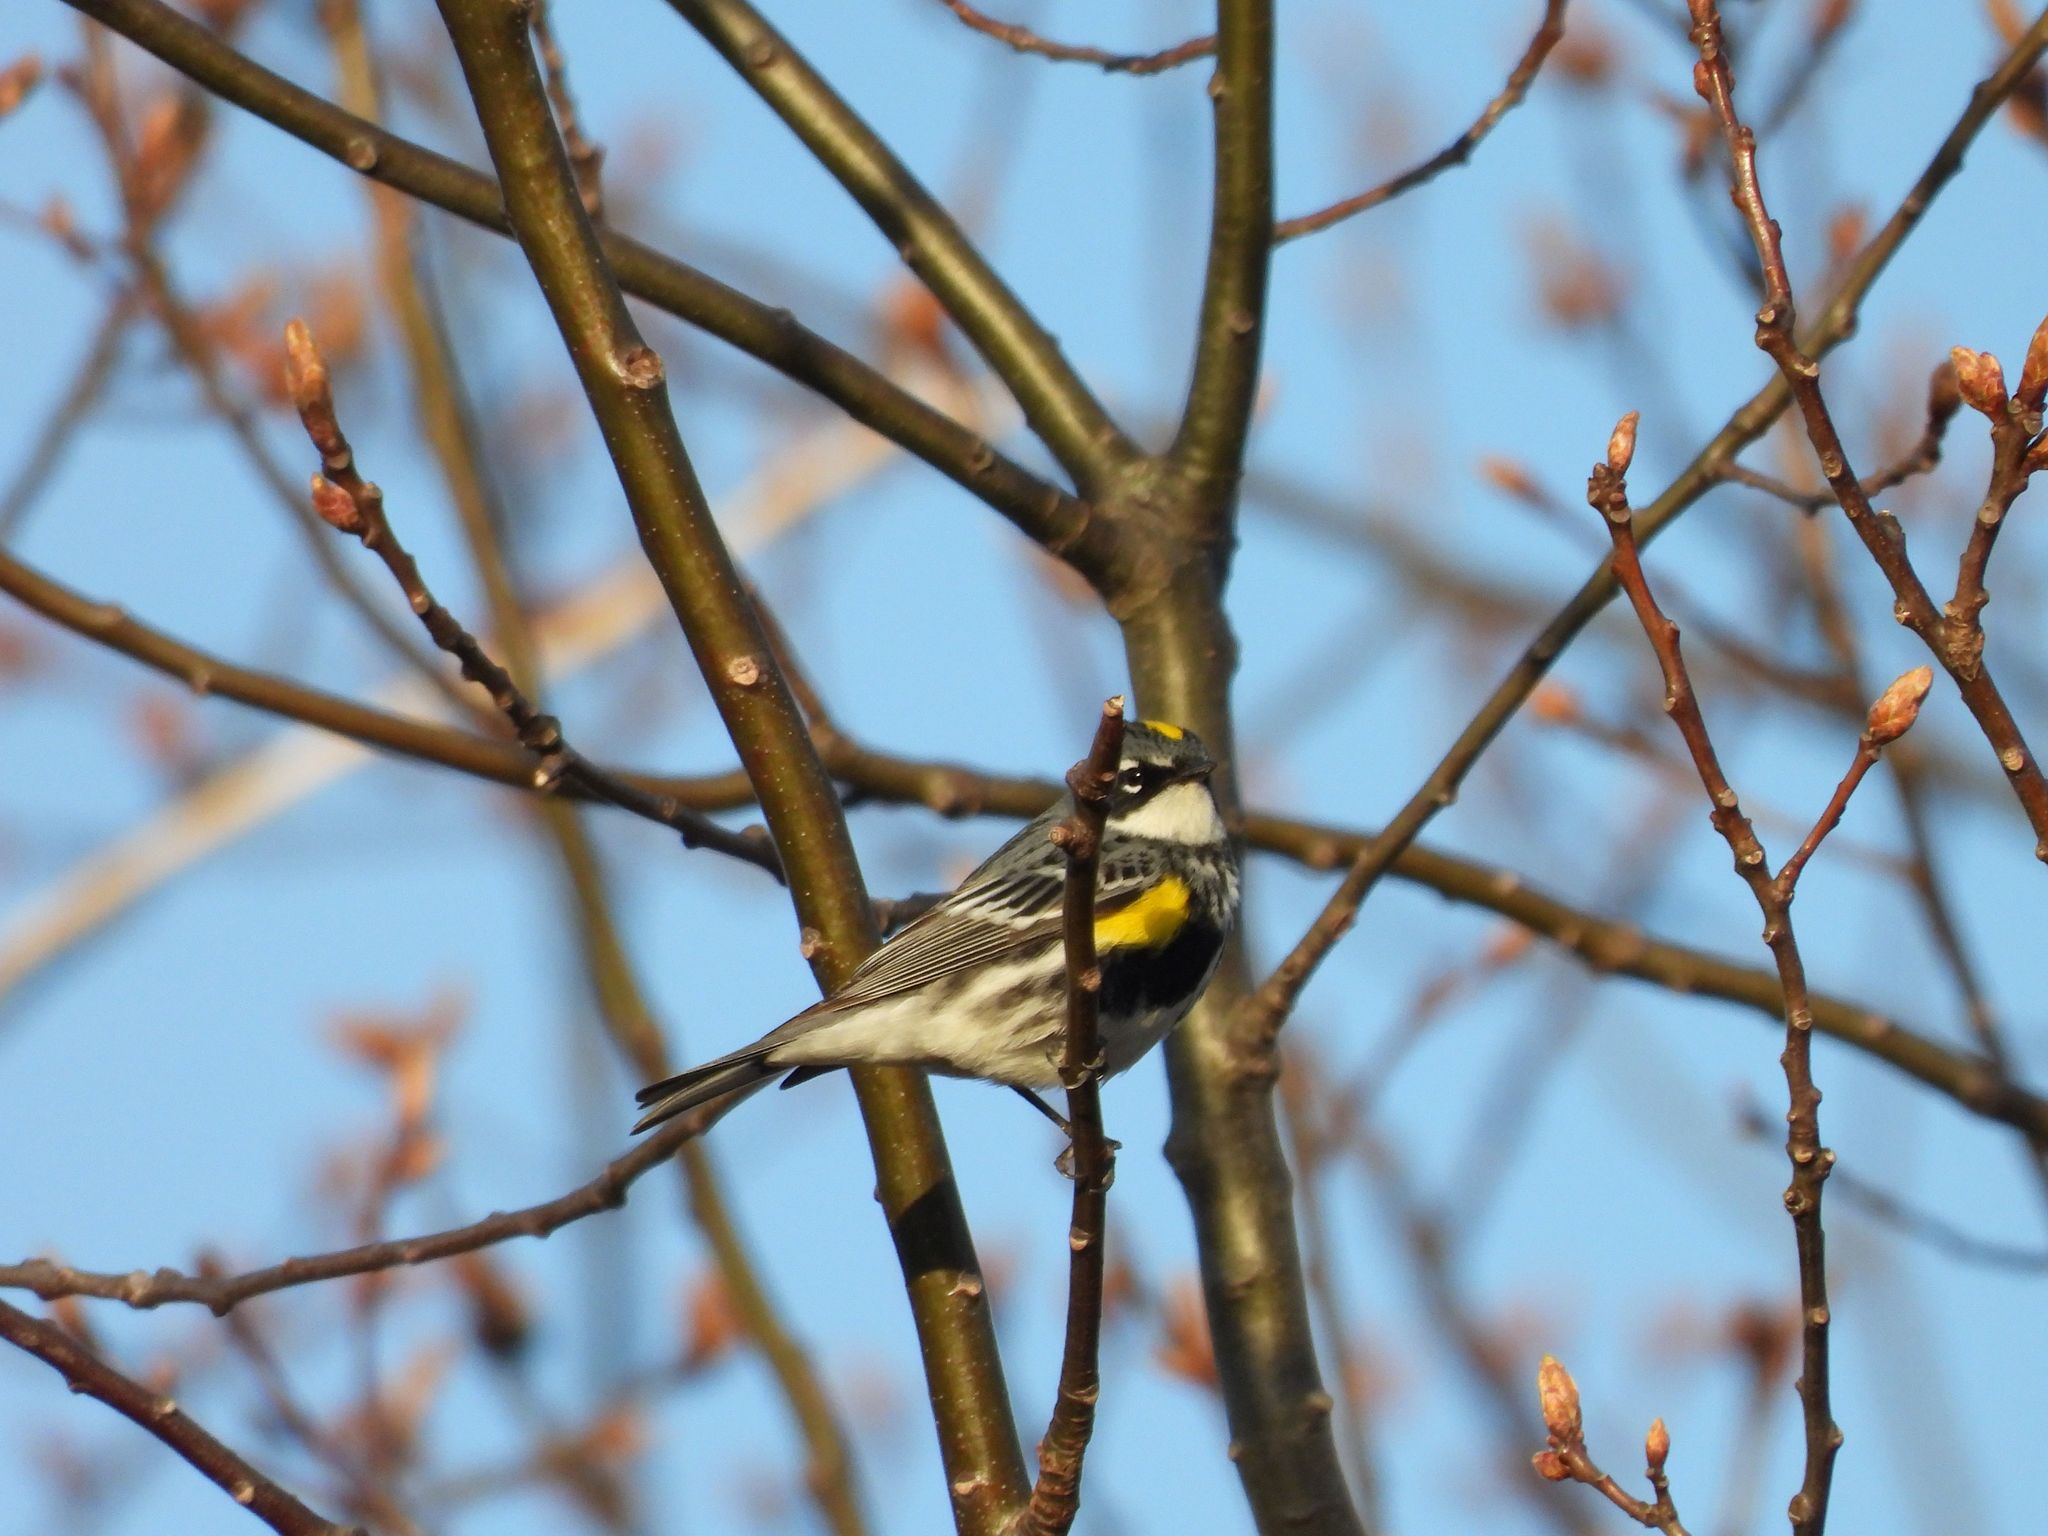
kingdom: Animalia
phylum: Chordata
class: Aves
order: Passeriformes
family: Parulidae
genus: Setophaga
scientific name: Setophaga coronata
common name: Myrtle warbler
